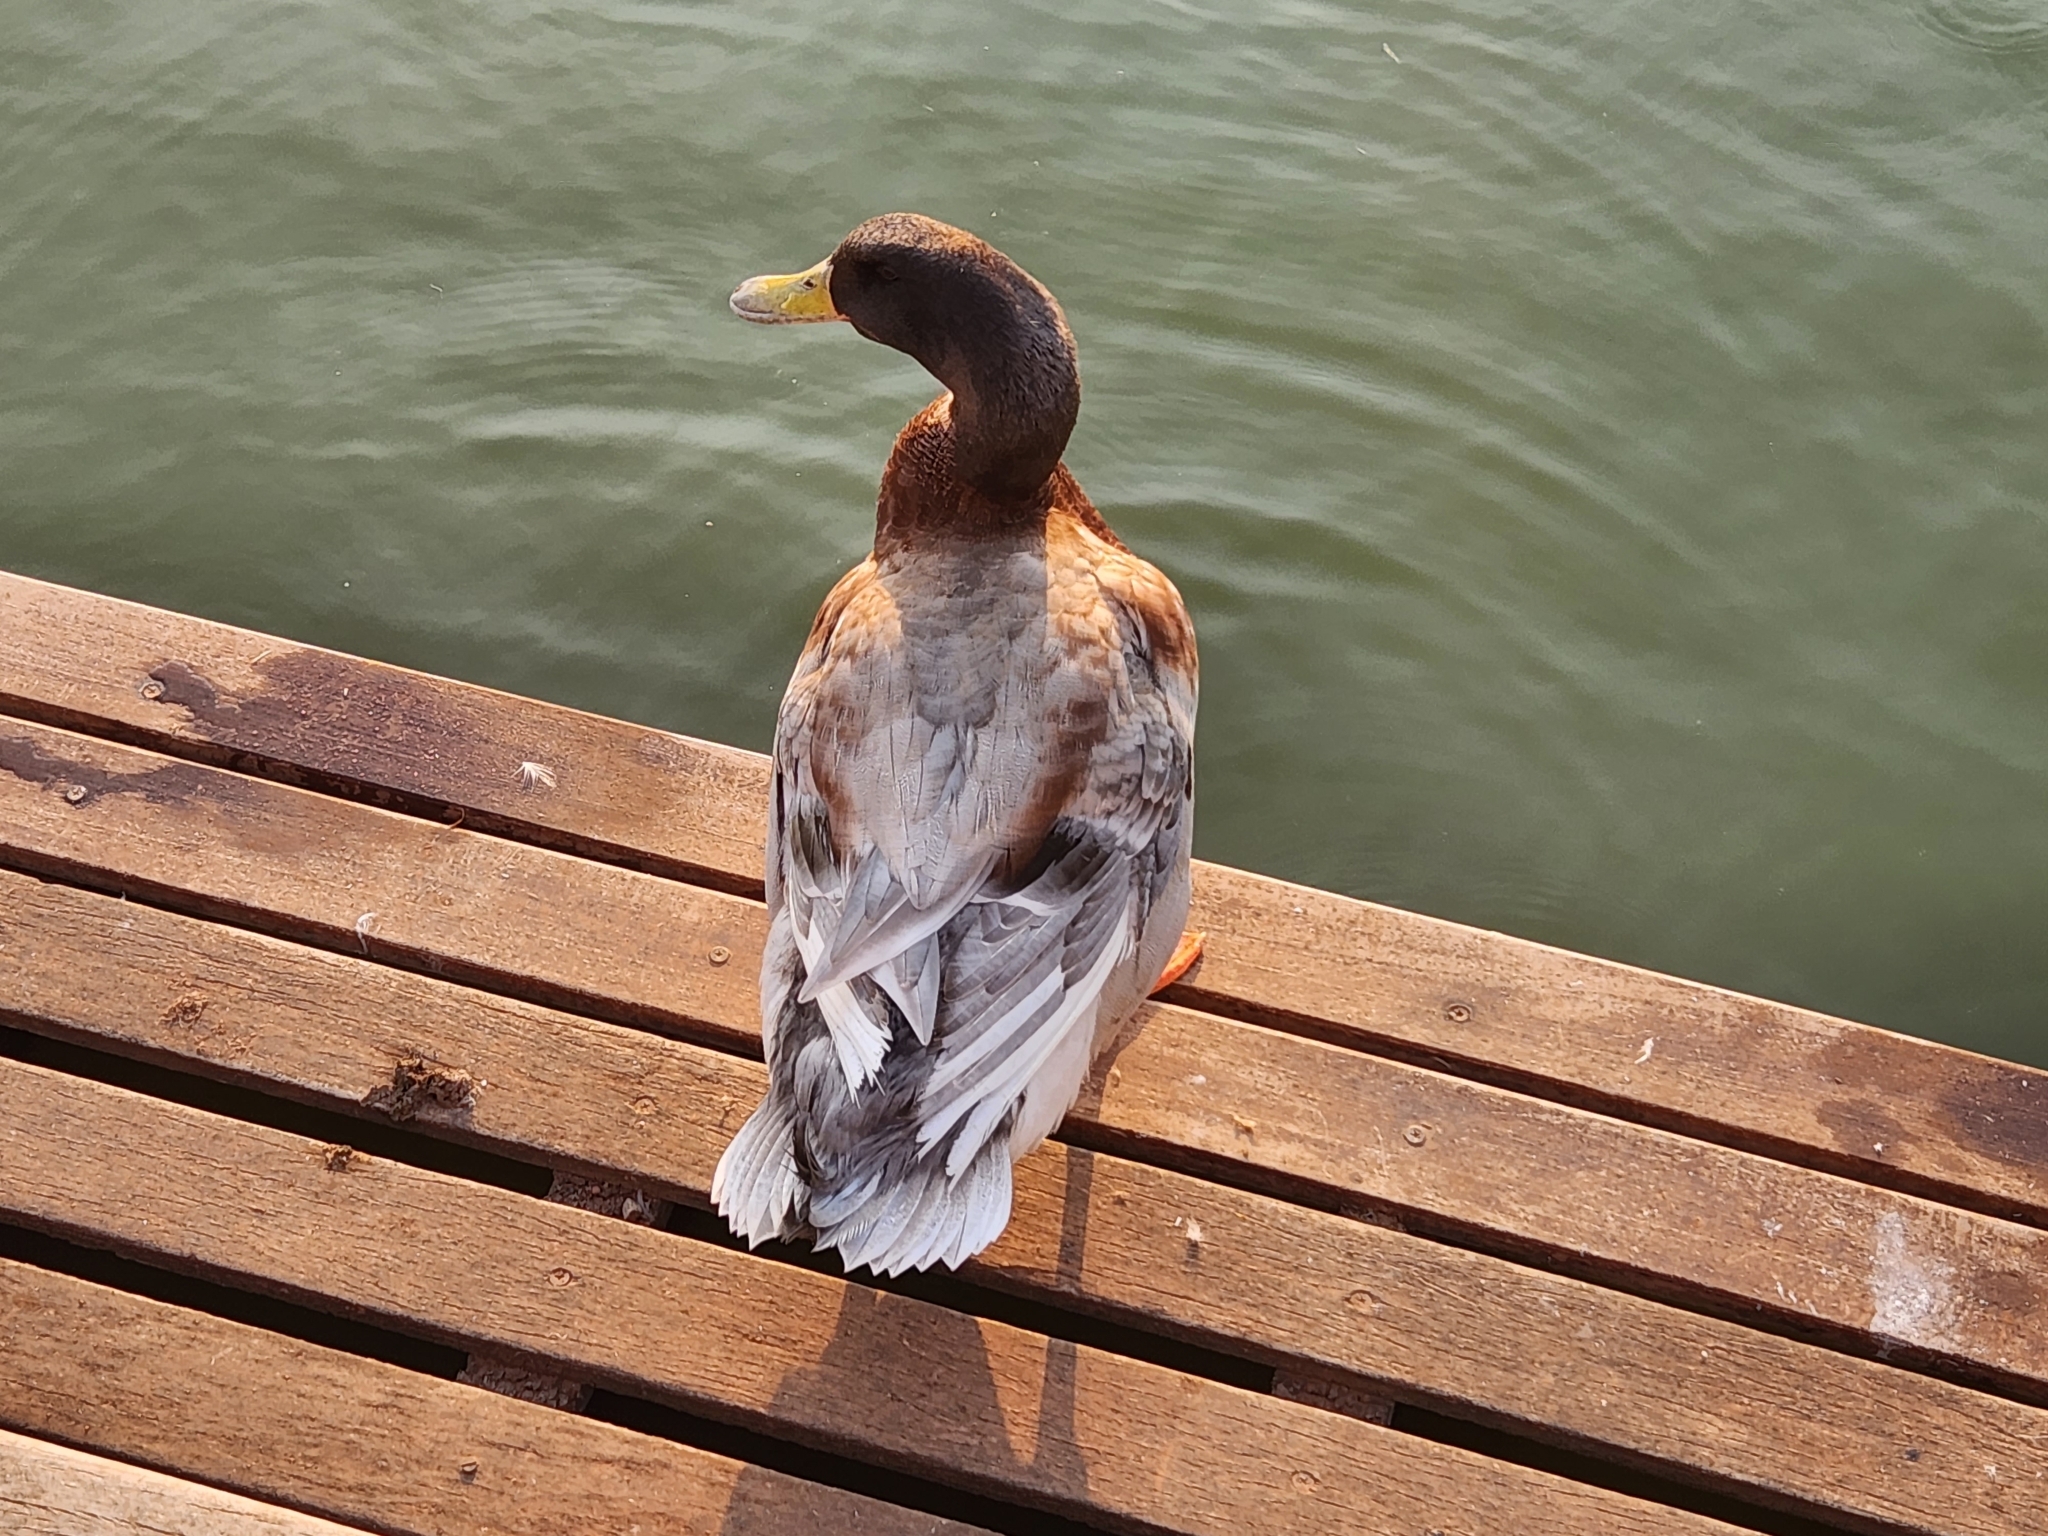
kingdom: Animalia
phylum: Chordata
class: Aves
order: Anseriformes
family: Anatidae
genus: Anas
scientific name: Anas platyrhynchos
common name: Mallard
